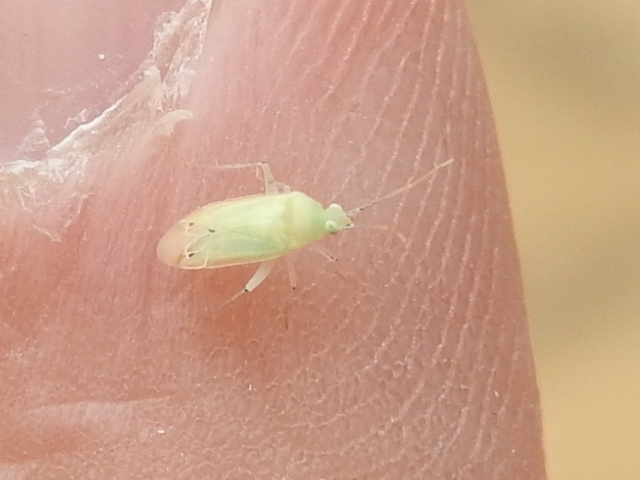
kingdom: Animalia
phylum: Arthropoda
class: Insecta
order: Hemiptera
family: Miridae
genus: Americodema
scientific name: Americodema nigrolineatum
